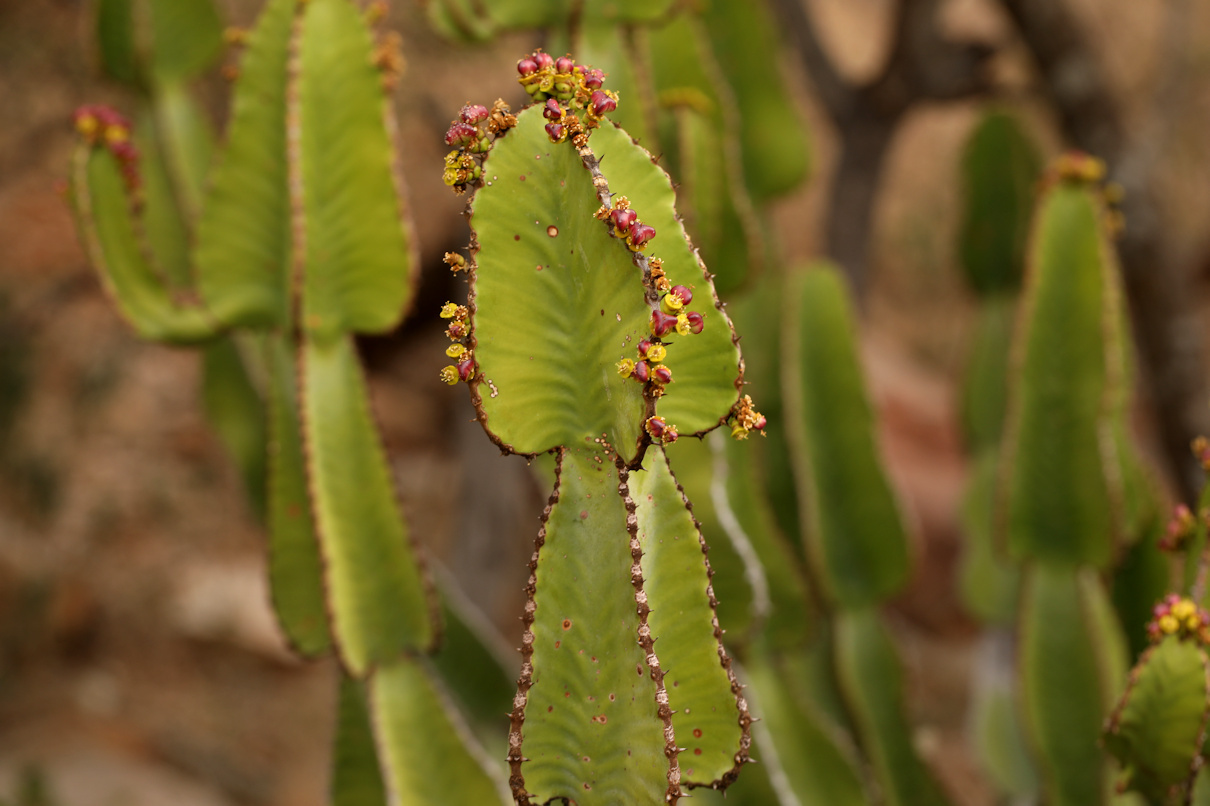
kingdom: Plantae
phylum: Tracheophyta
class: Magnoliopsida
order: Malpighiales
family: Euphorbiaceae
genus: Euphorbia
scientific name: Euphorbia cooperi
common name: Candelabra tree
